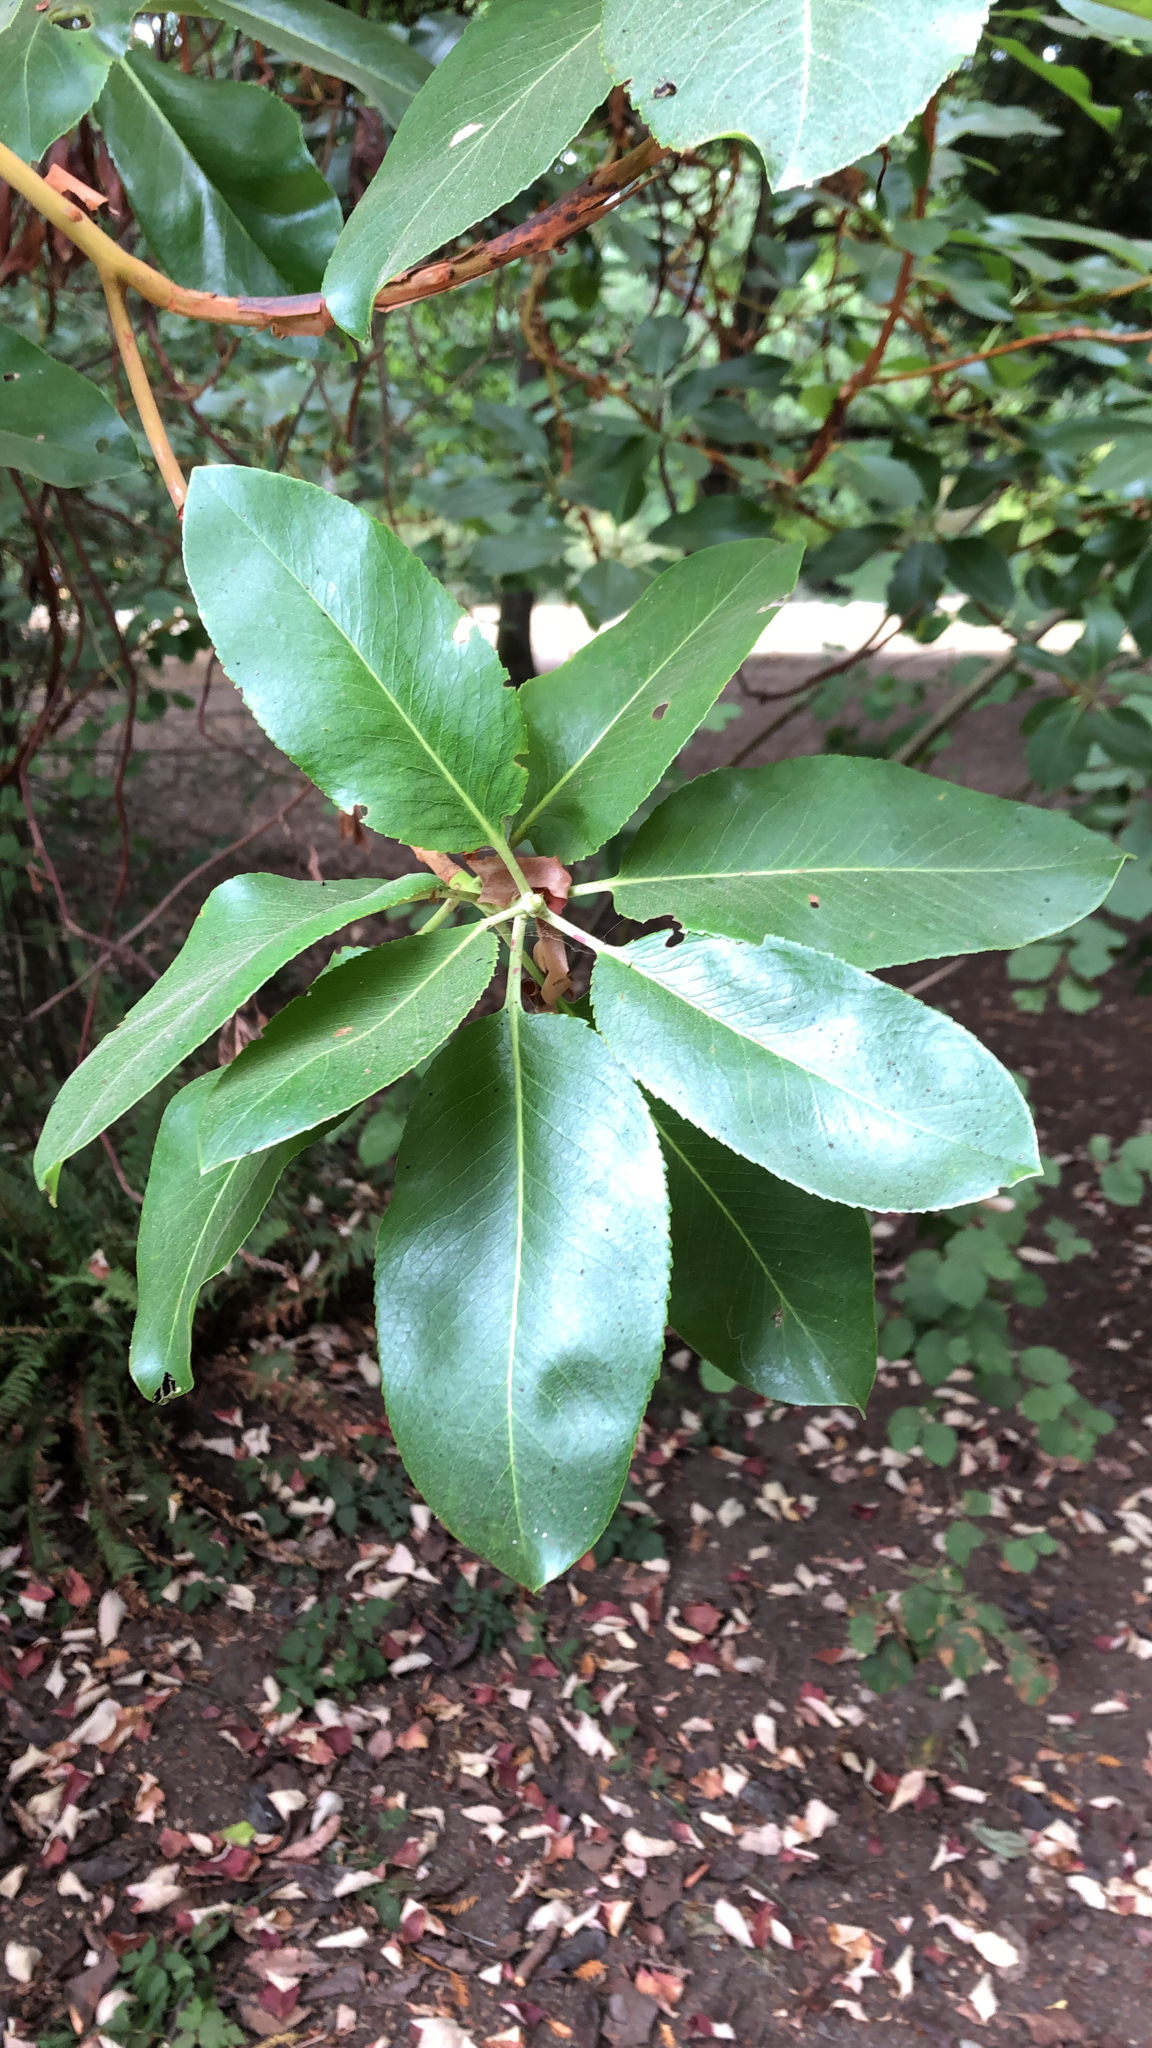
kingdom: Plantae
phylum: Tracheophyta
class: Magnoliopsida
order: Ericales
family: Ericaceae
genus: Arbutus
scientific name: Arbutus menziesii
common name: Pacific madrone
